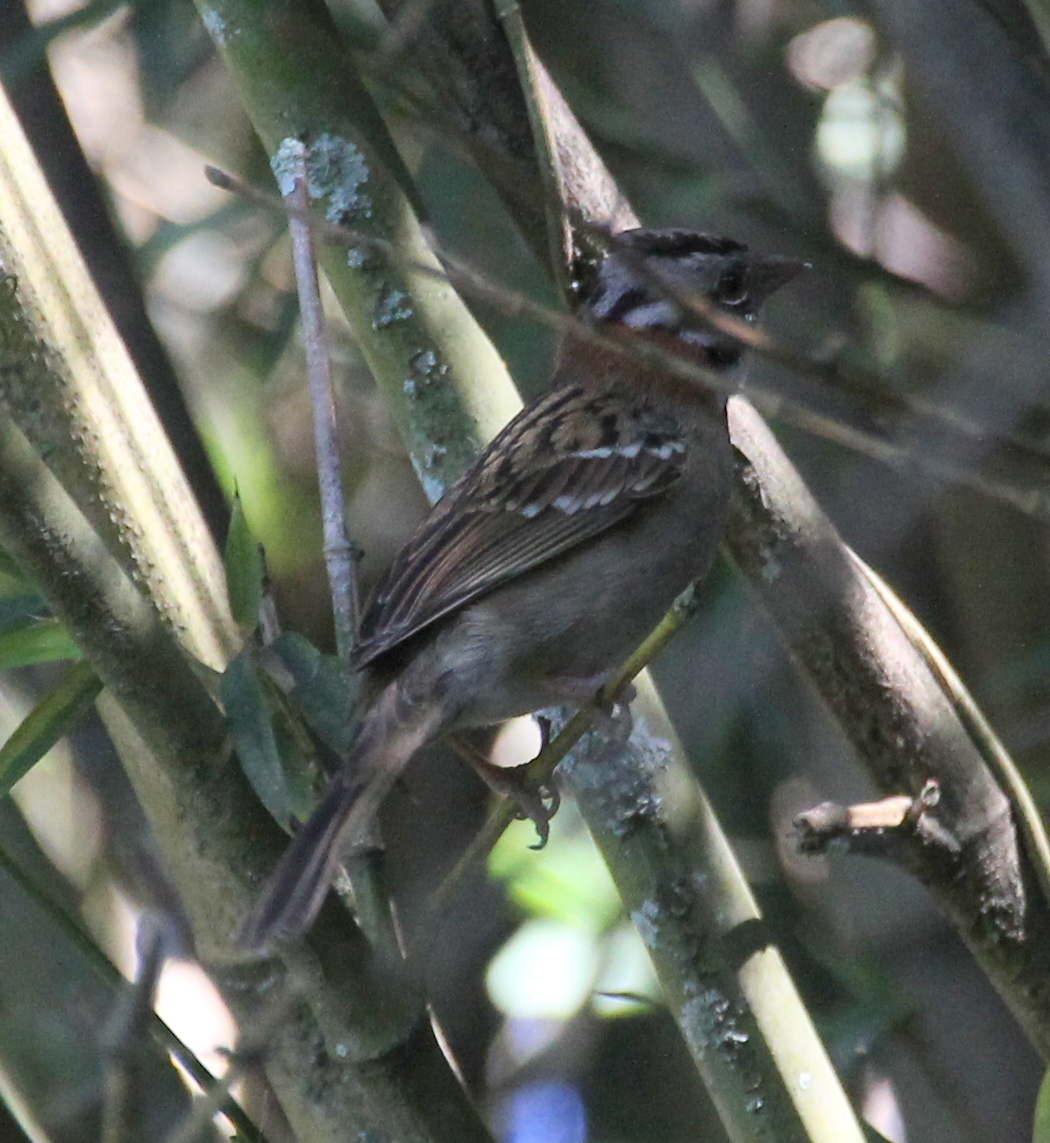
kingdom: Animalia
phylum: Chordata
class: Aves
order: Passeriformes
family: Passerellidae
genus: Zonotrichia
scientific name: Zonotrichia capensis
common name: Rufous-collared sparrow
